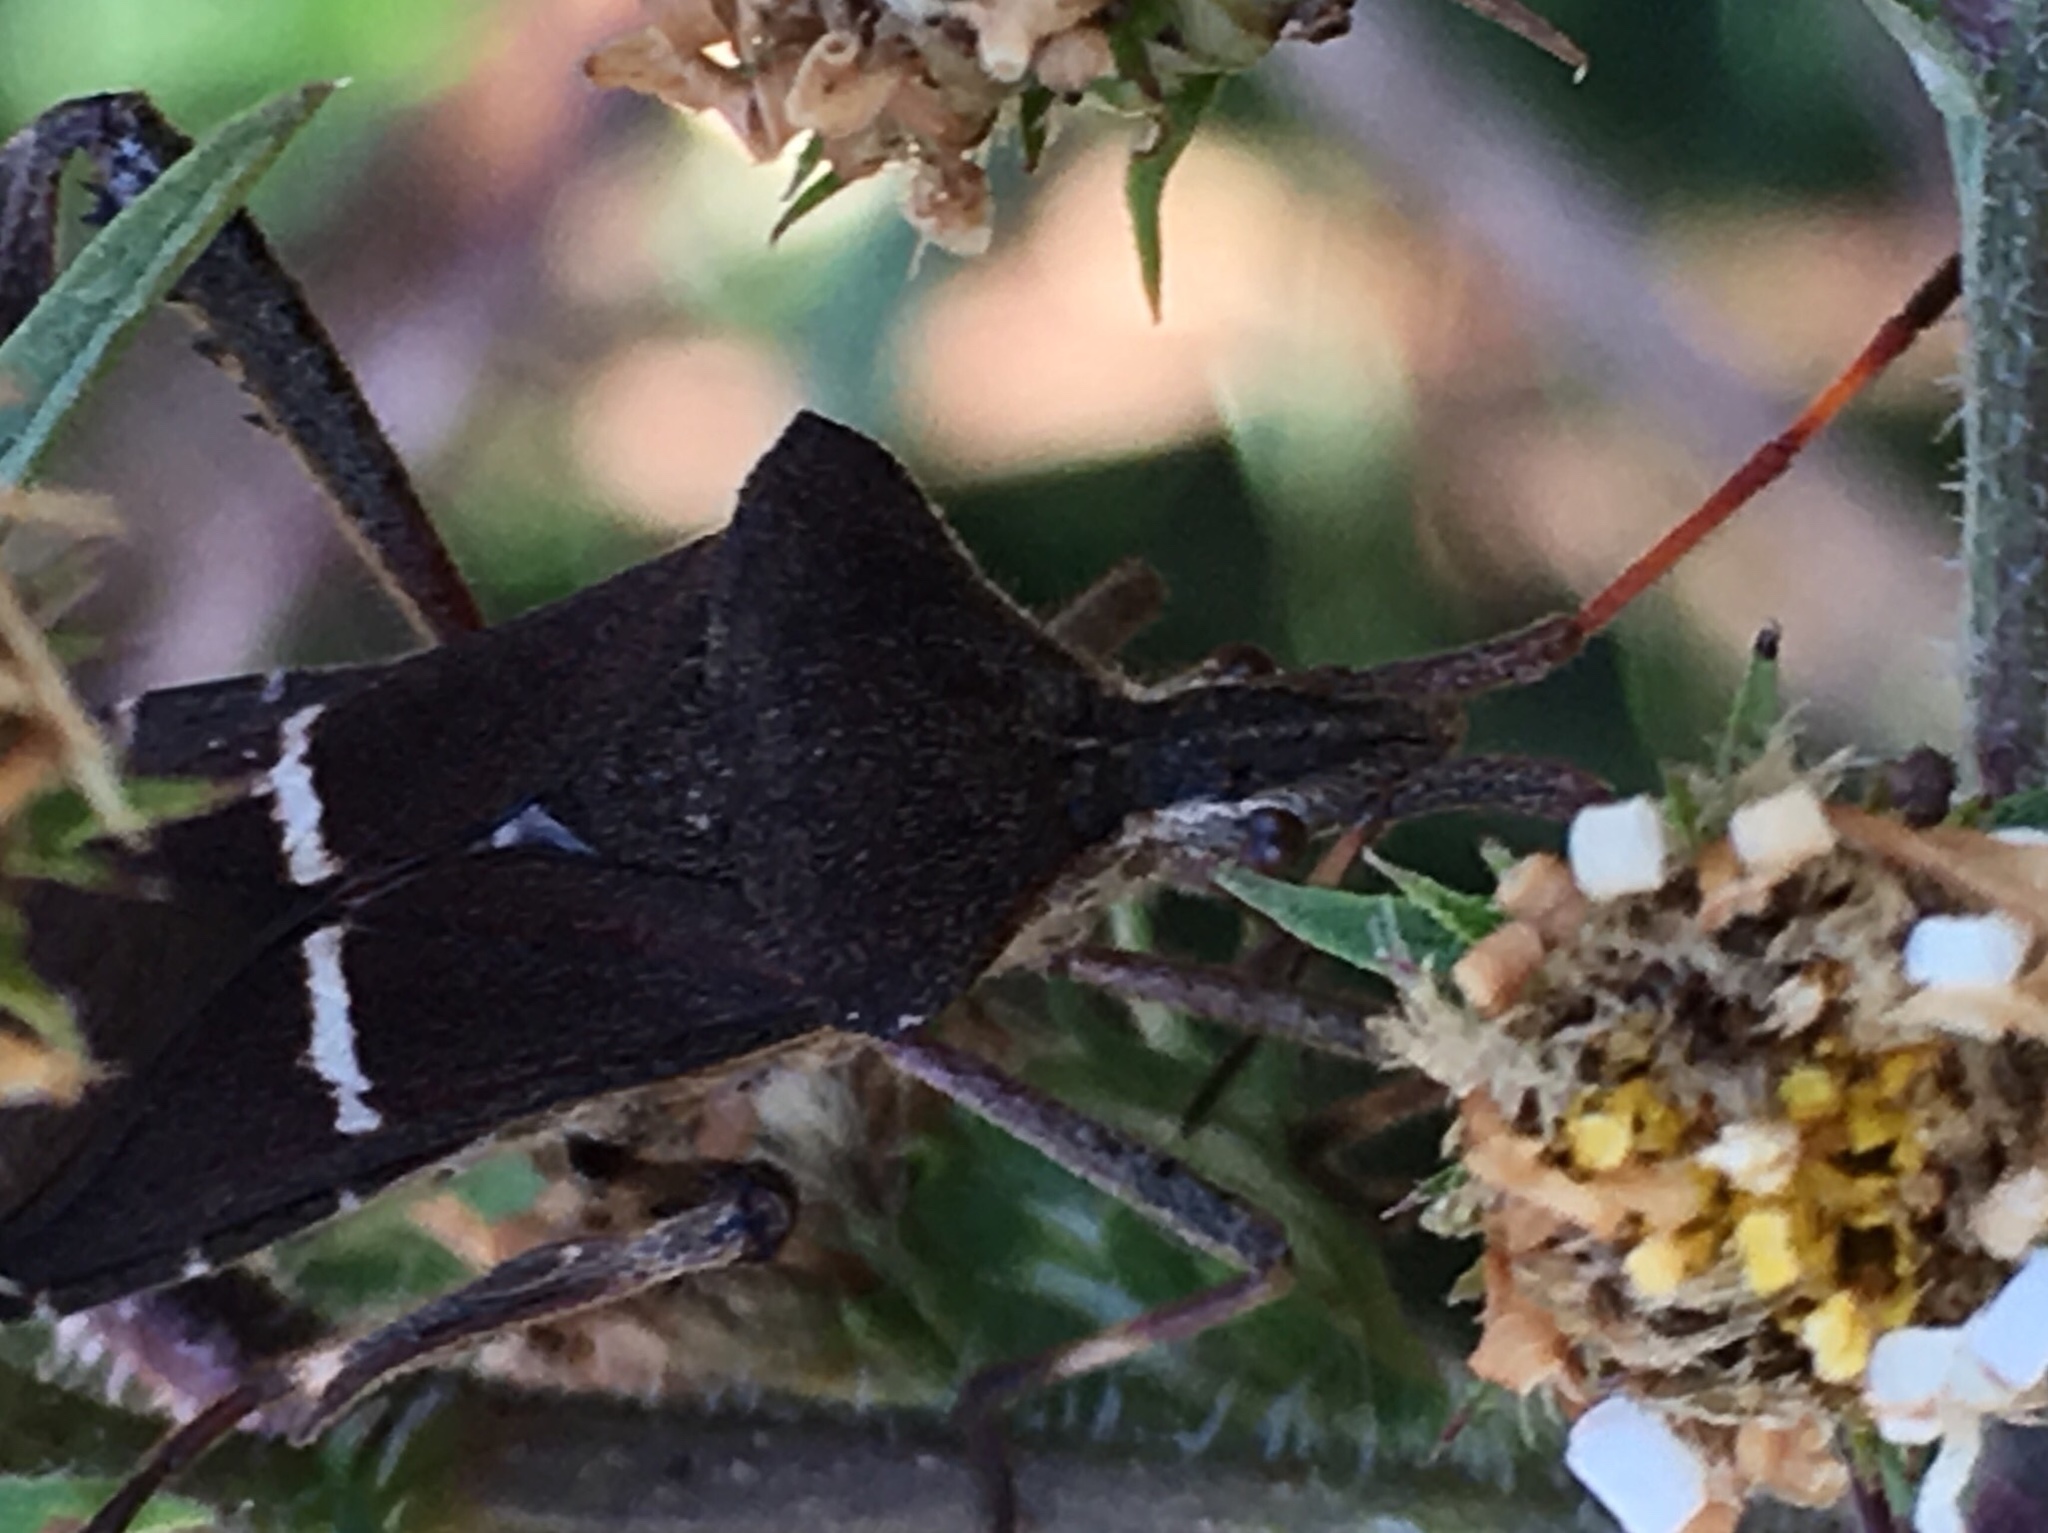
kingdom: Animalia
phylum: Arthropoda
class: Insecta
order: Hemiptera
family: Coreidae
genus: Leptoglossus
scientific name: Leptoglossus phyllopus
